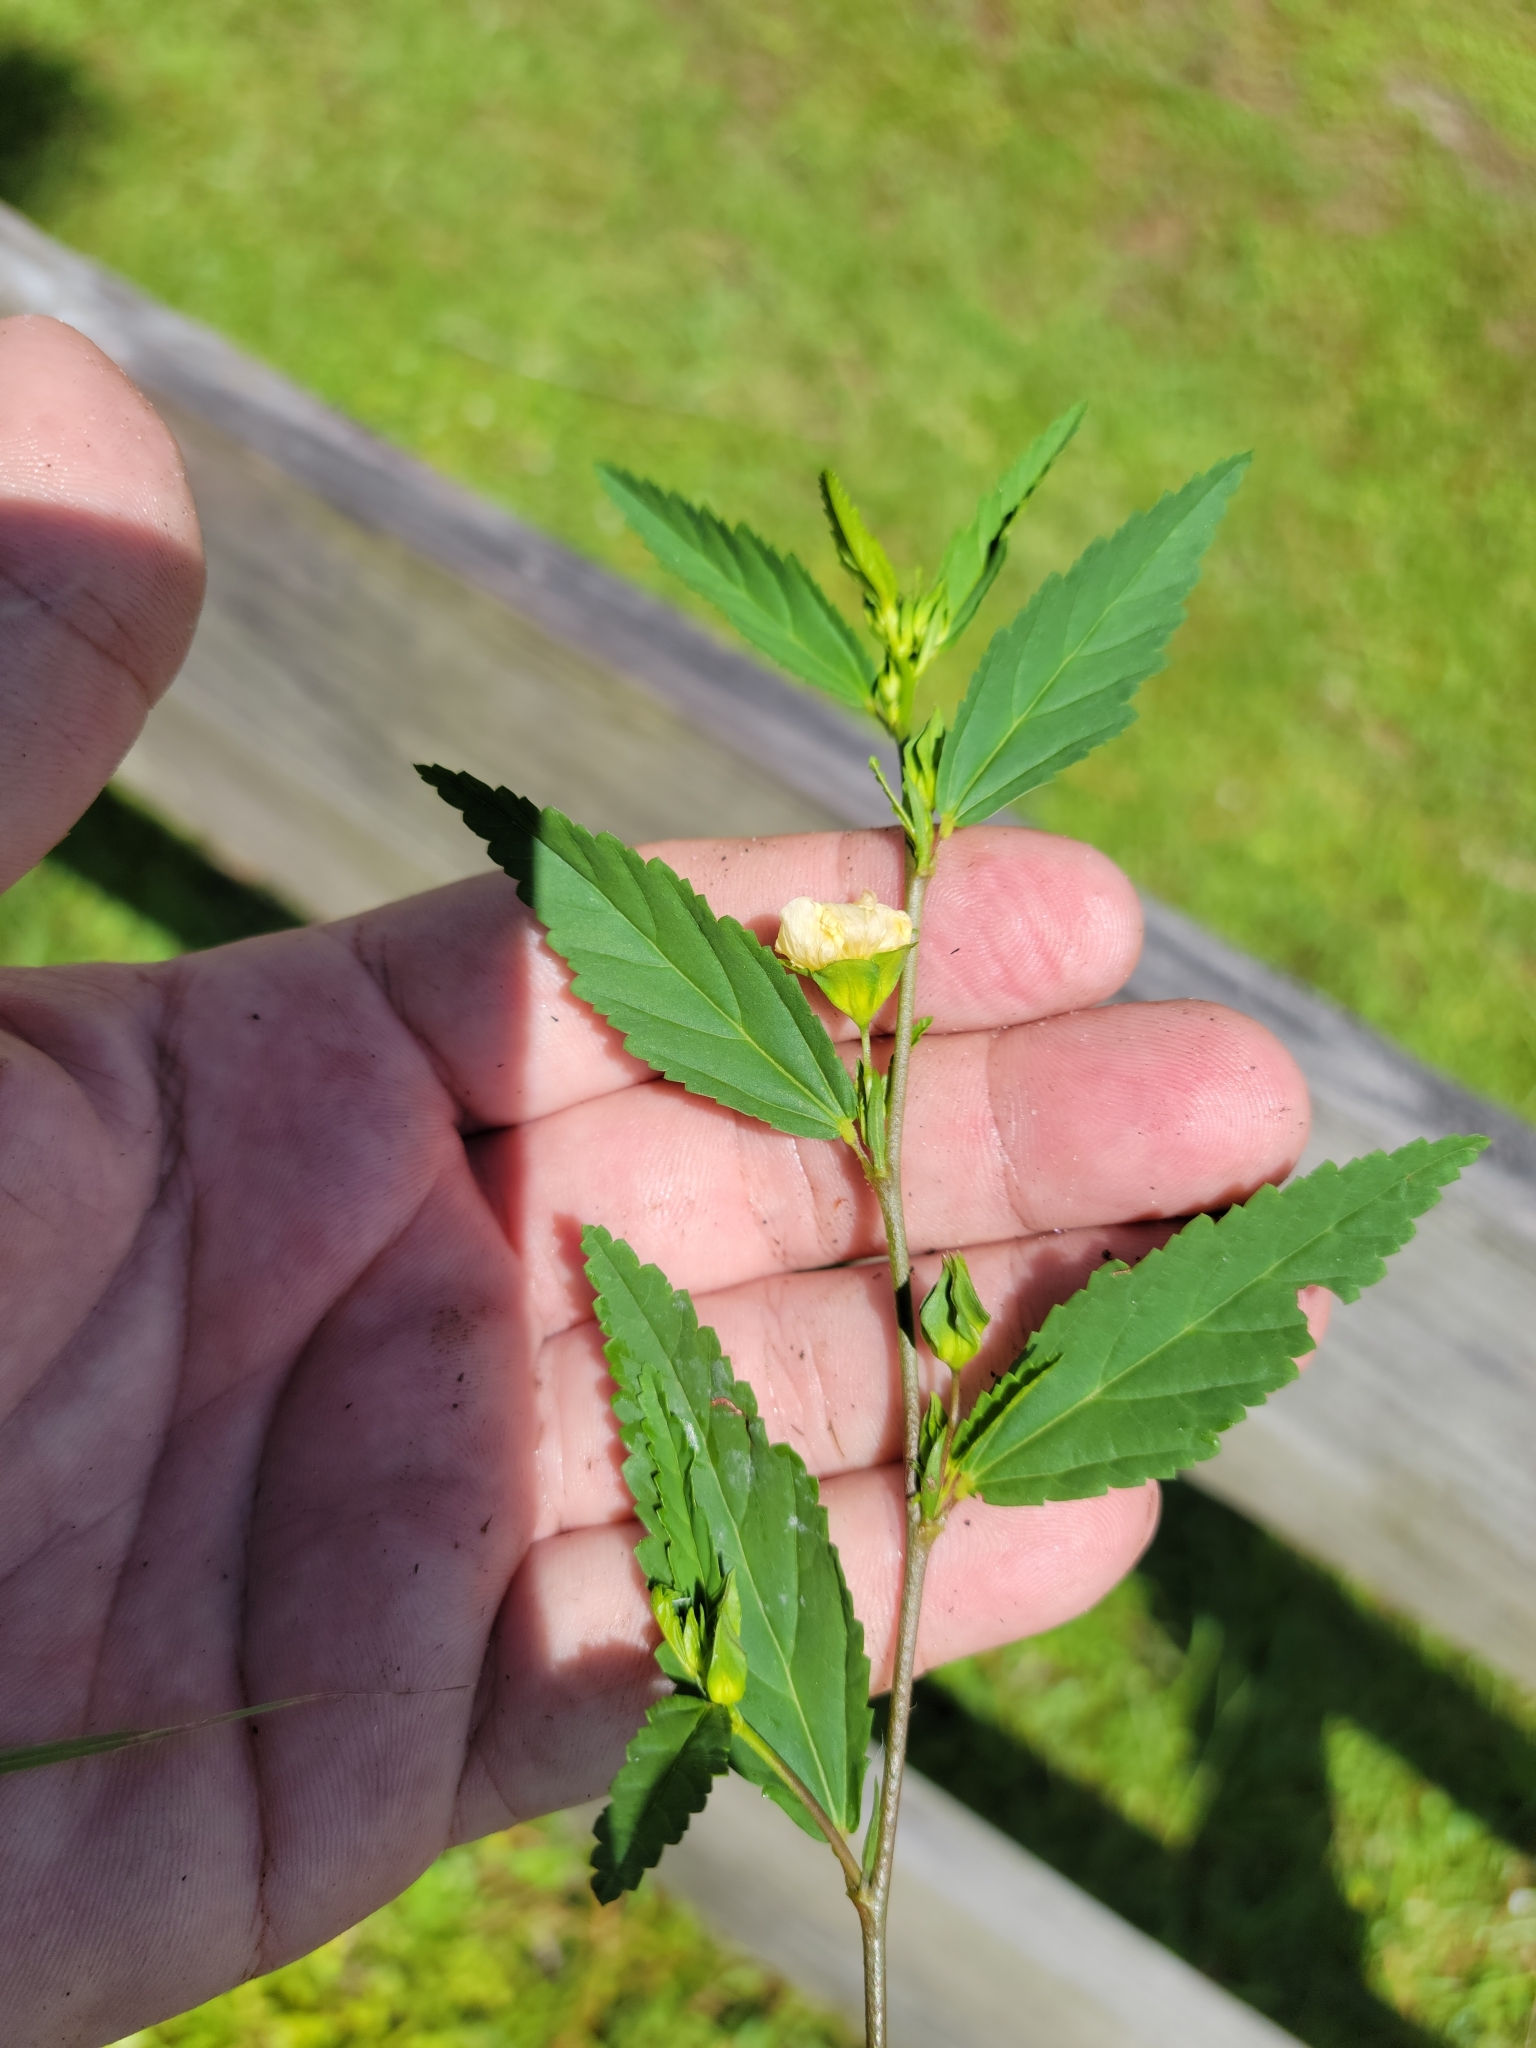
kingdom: Plantae
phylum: Tracheophyta
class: Magnoliopsida
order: Malvales
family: Malvaceae
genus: Sida
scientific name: Sida ulmifolia
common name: Broom weed
